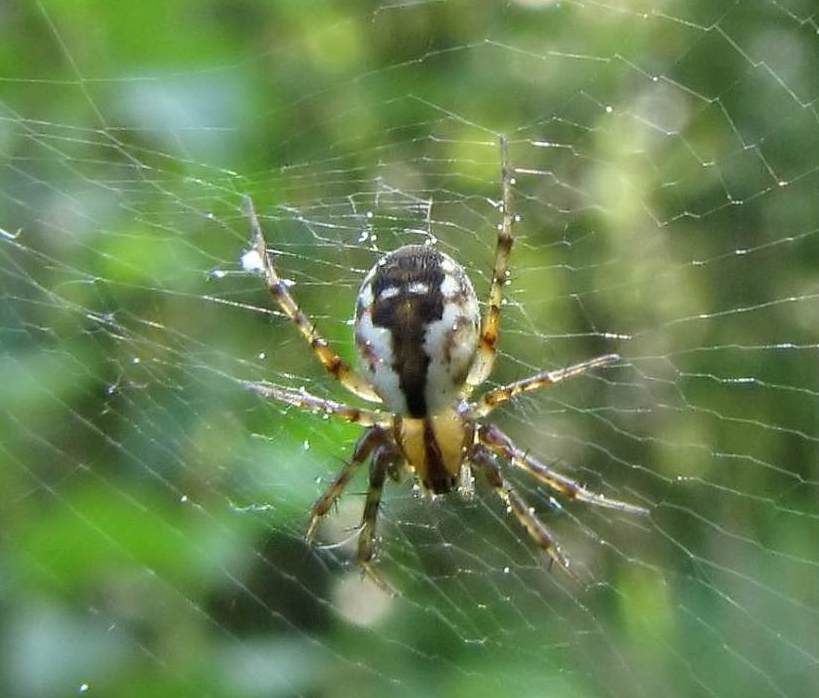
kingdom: Animalia
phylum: Arthropoda
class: Arachnida
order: Araneae
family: Araneidae
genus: Mangora
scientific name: Mangora placida
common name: Tuft-legged orbweaver
